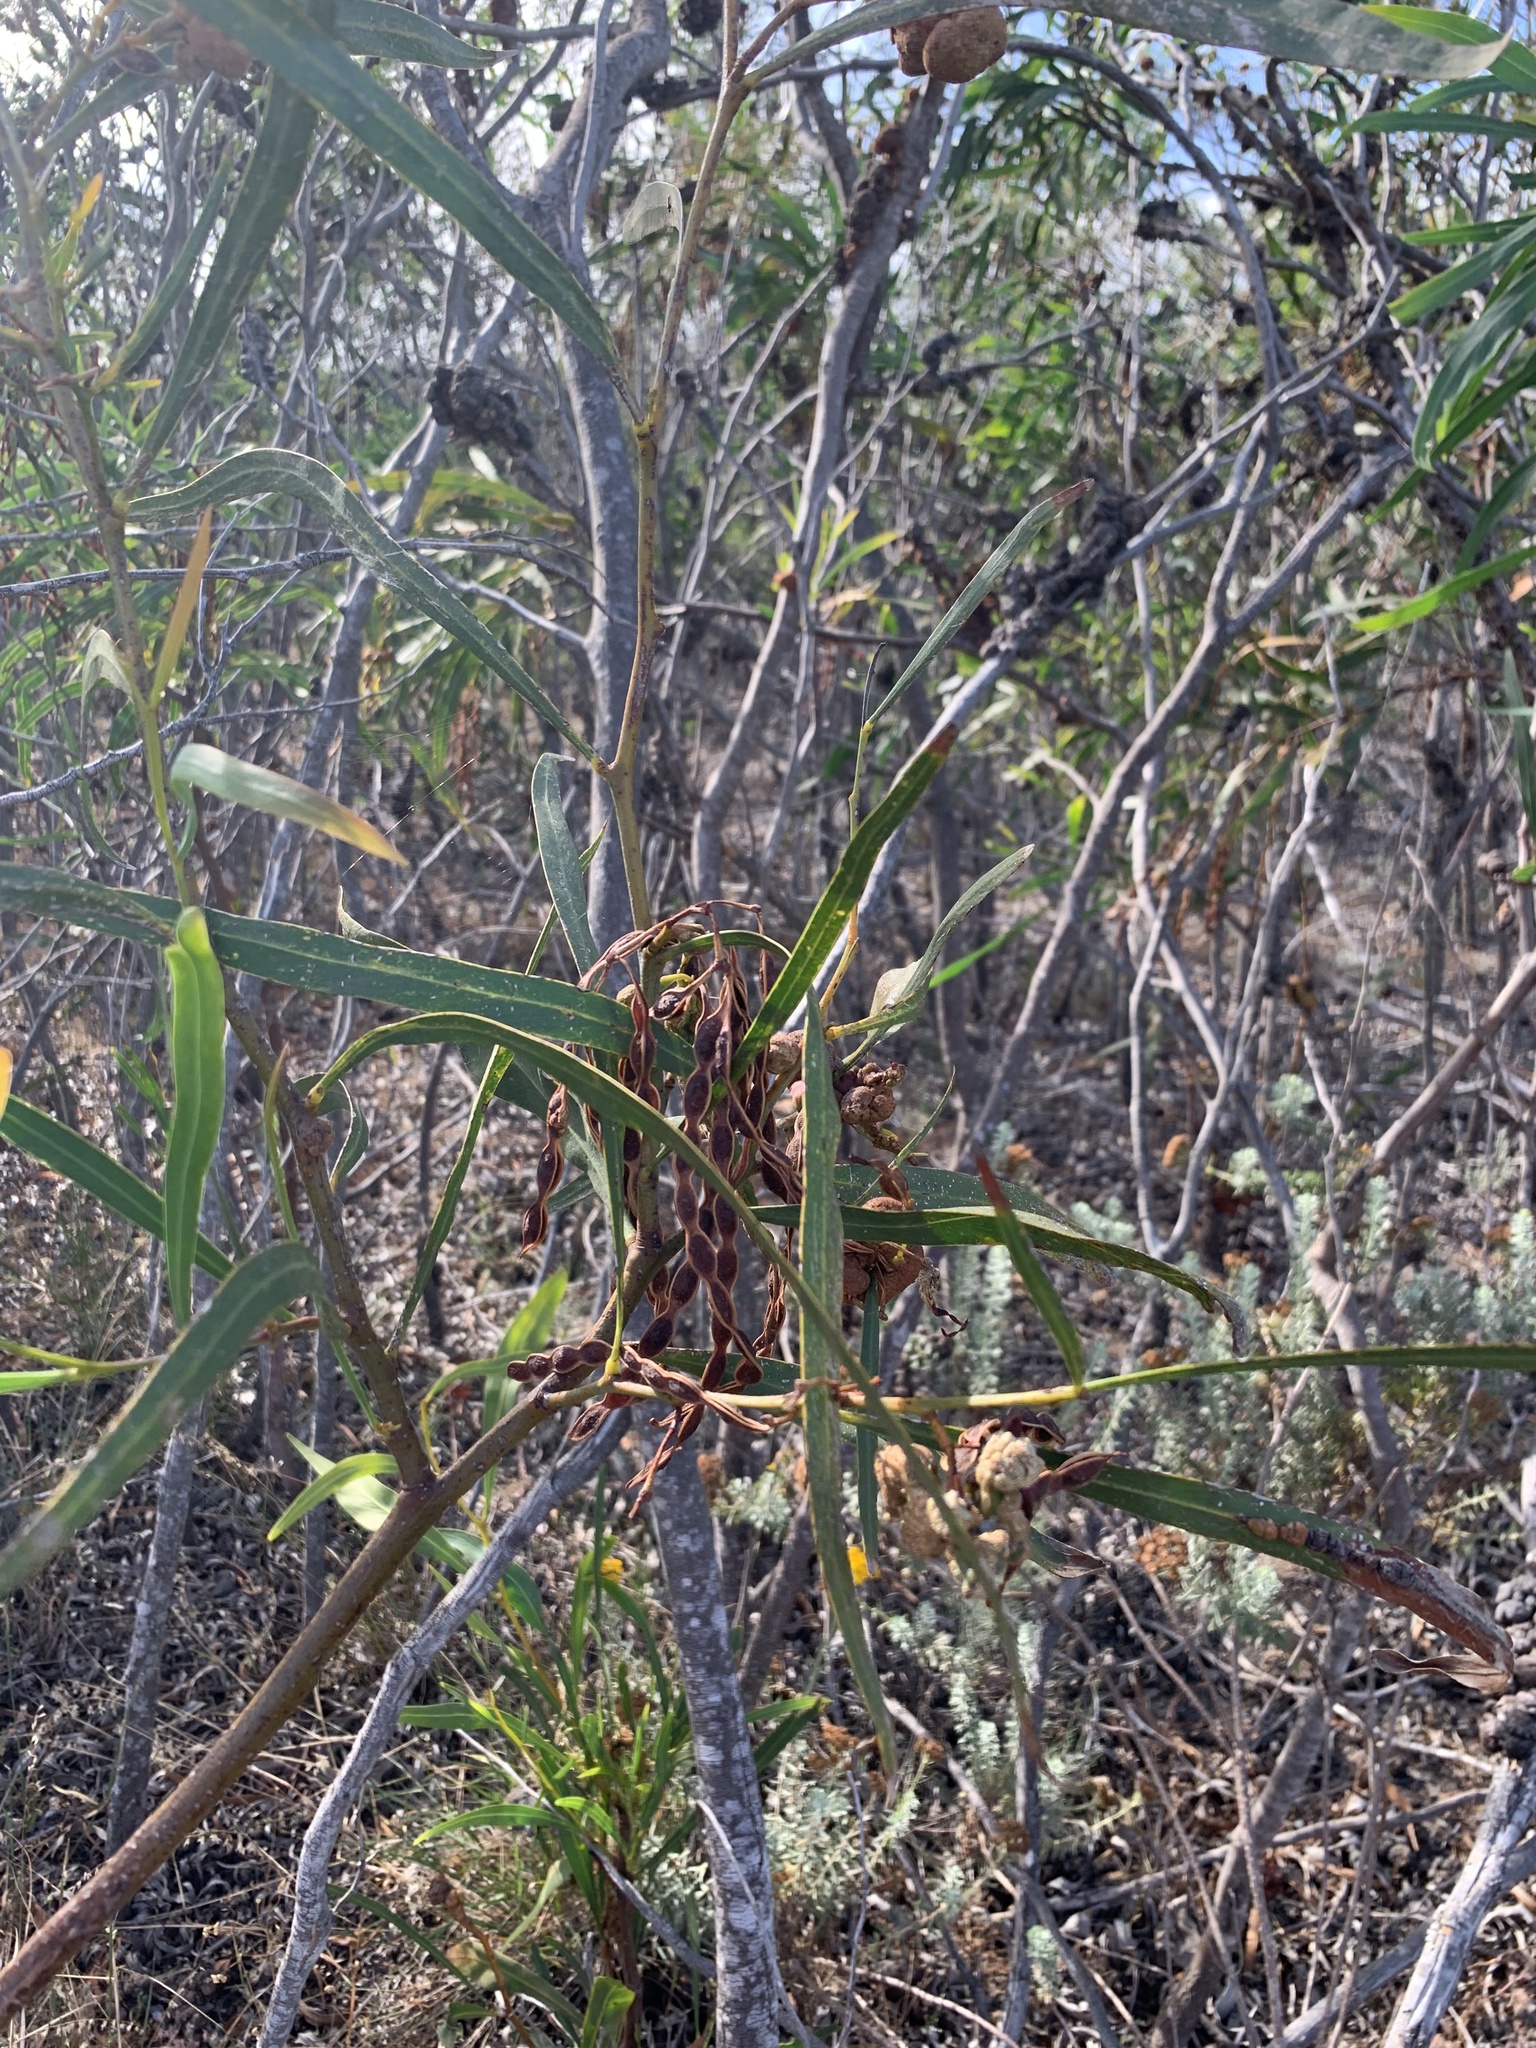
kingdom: Plantae
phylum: Tracheophyta
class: Magnoliopsida
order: Fabales
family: Fabaceae
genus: Acacia
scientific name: Acacia saligna
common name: Orange wattle
